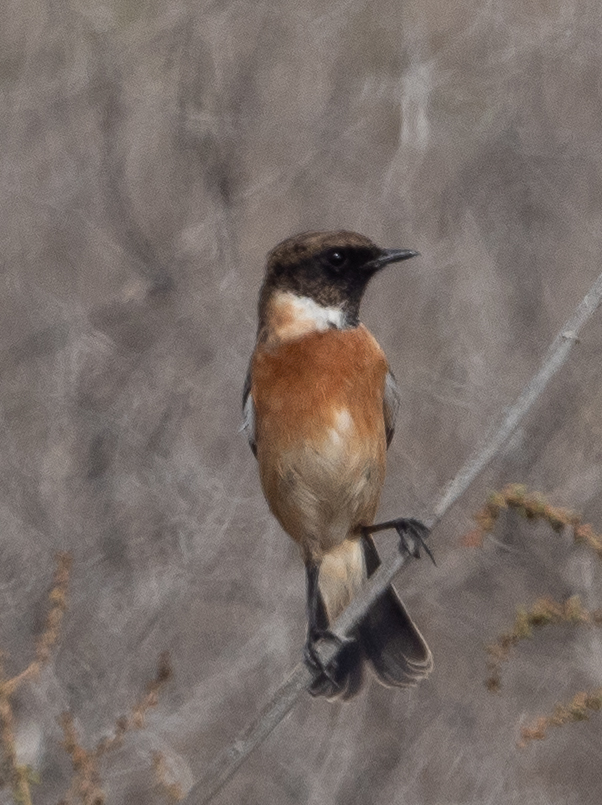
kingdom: Animalia
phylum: Chordata
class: Aves
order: Passeriformes
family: Muscicapidae
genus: Saxicola
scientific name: Saxicola maurus
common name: Siberian stonechat
